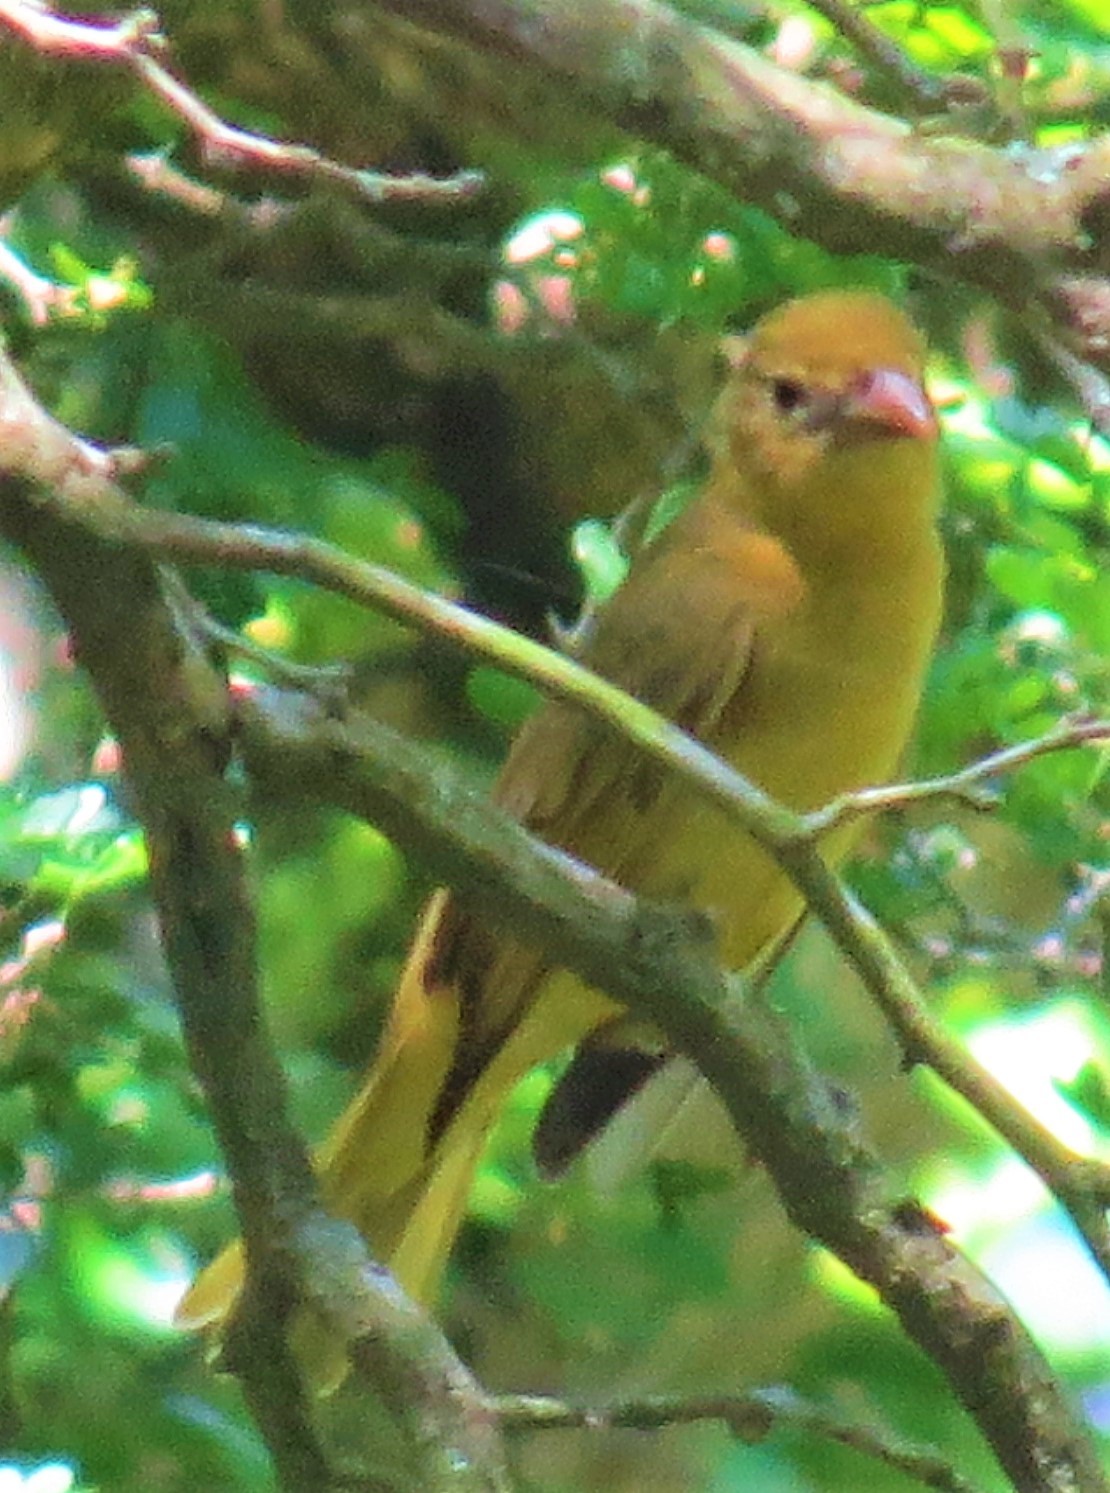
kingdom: Animalia
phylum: Chordata
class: Aves
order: Passeriformes
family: Cardinalidae
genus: Piranga
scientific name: Piranga rubra
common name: Summer tanager
